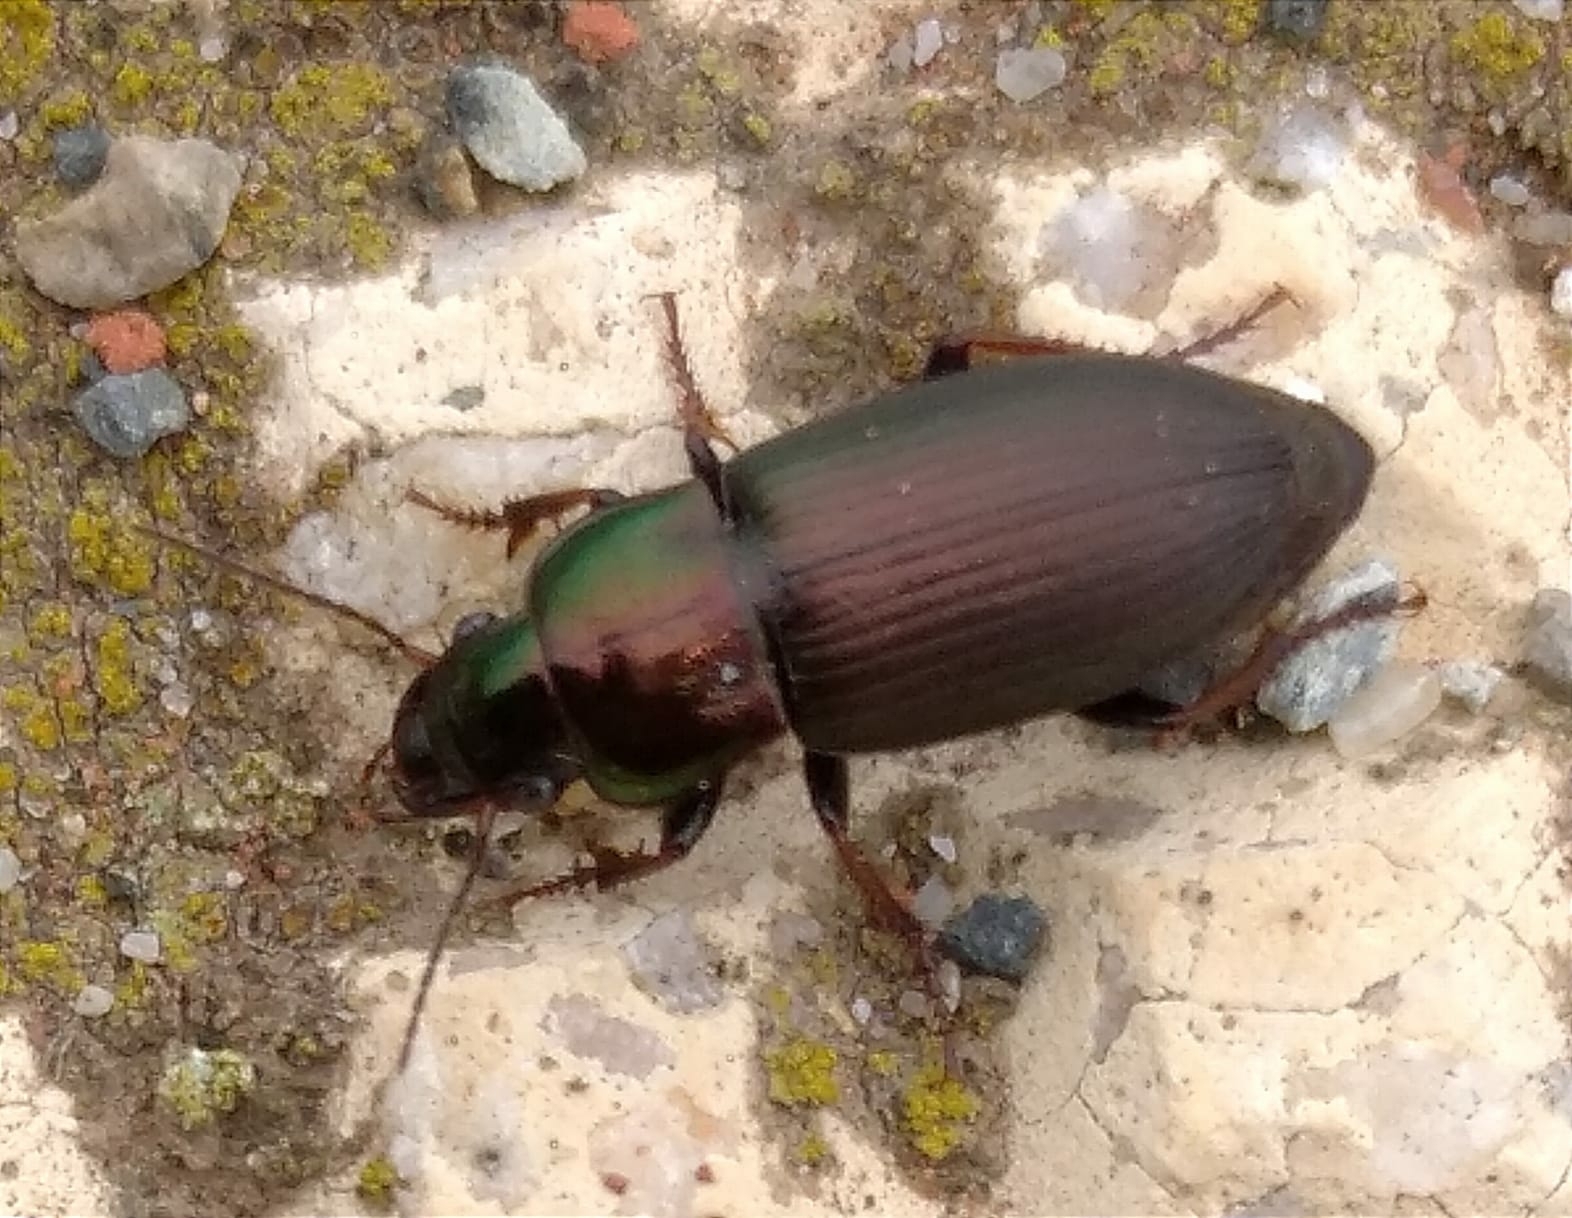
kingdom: Animalia
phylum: Arthropoda
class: Insecta
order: Coleoptera
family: Carabidae
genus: Harpalus
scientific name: Harpalus distinguendus
